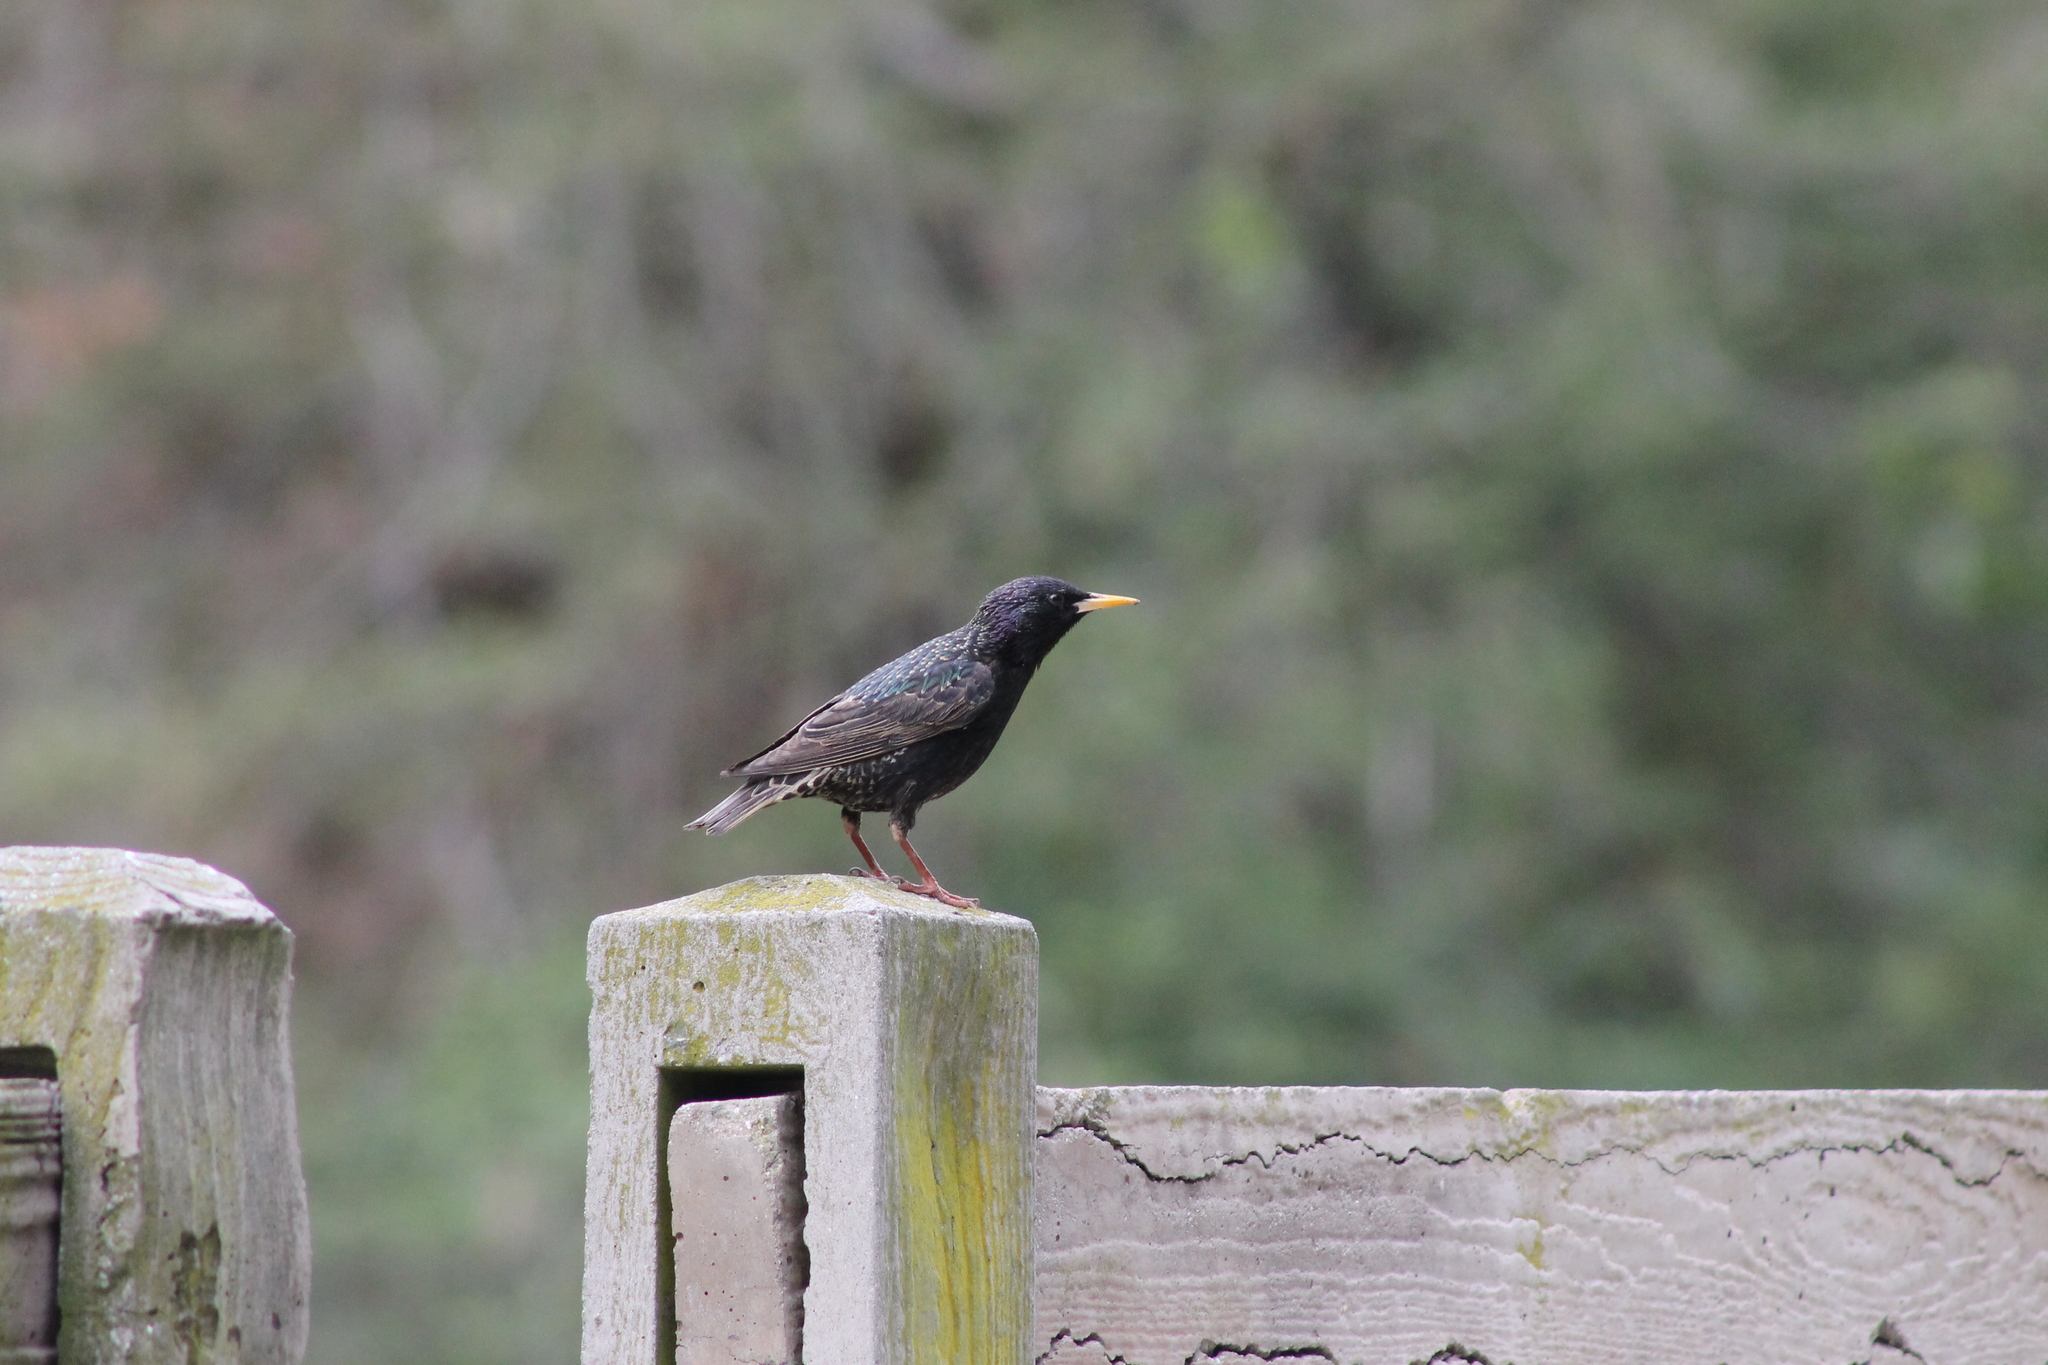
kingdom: Animalia
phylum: Chordata
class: Aves
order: Passeriformes
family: Sturnidae
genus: Sturnus
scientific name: Sturnus vulgaris
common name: Common starling
